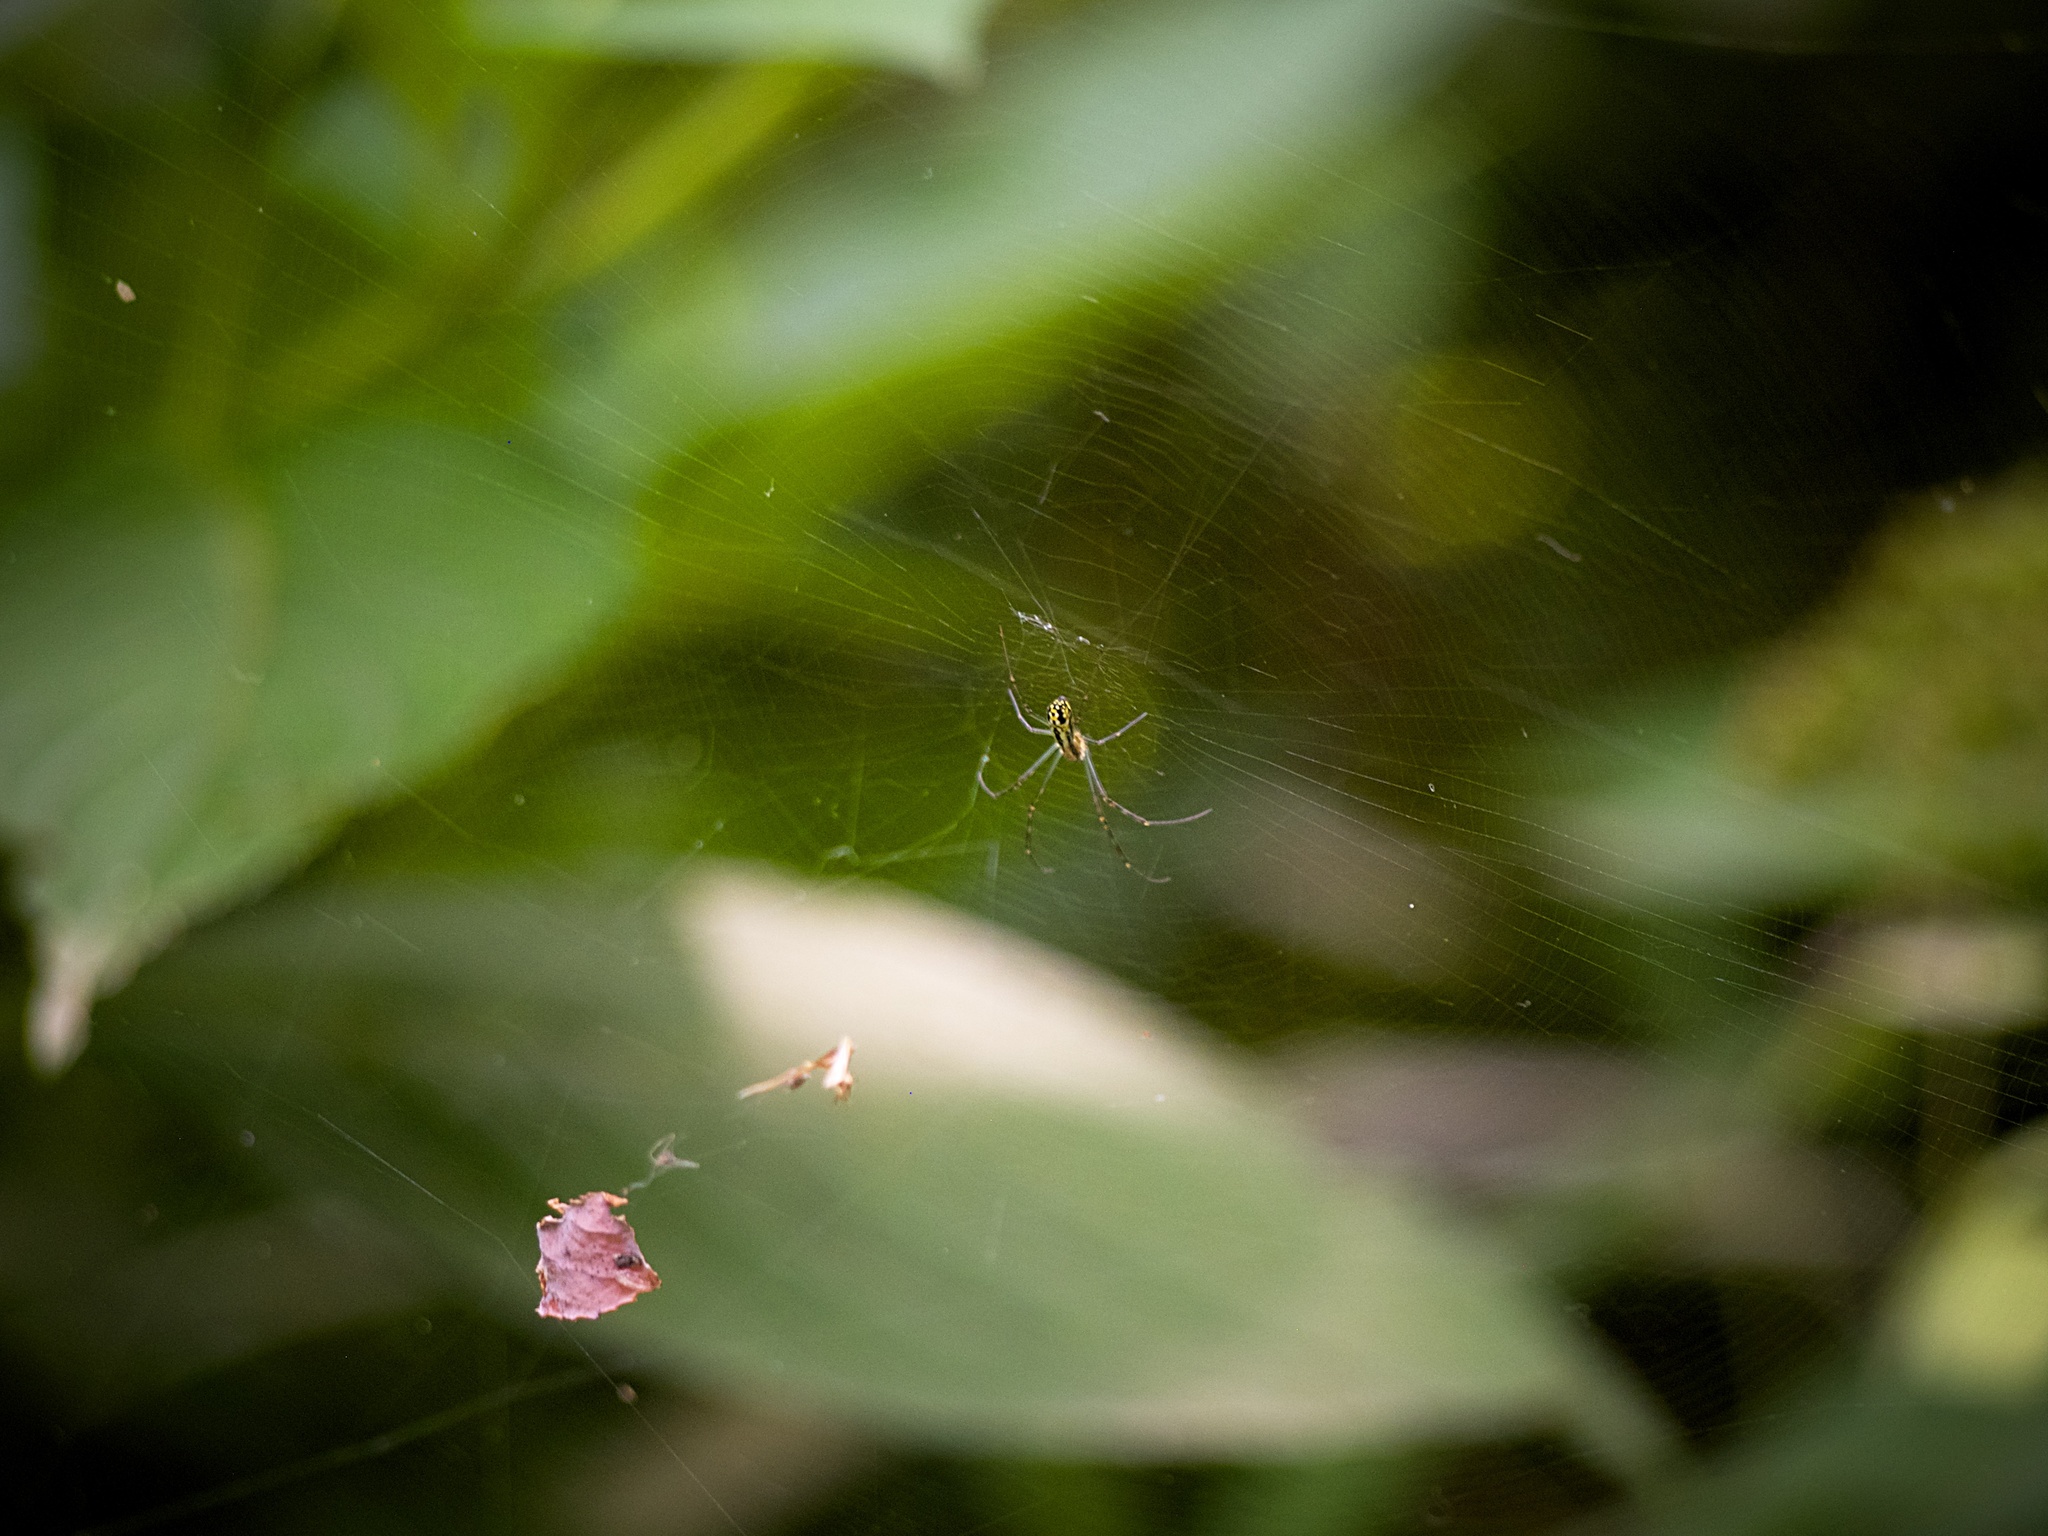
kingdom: Animalia
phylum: Arthropoda
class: Arachnida
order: Araneae
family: Araneidae
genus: Trichonephila
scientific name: Trichonephila clavata
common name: Jorō spider
